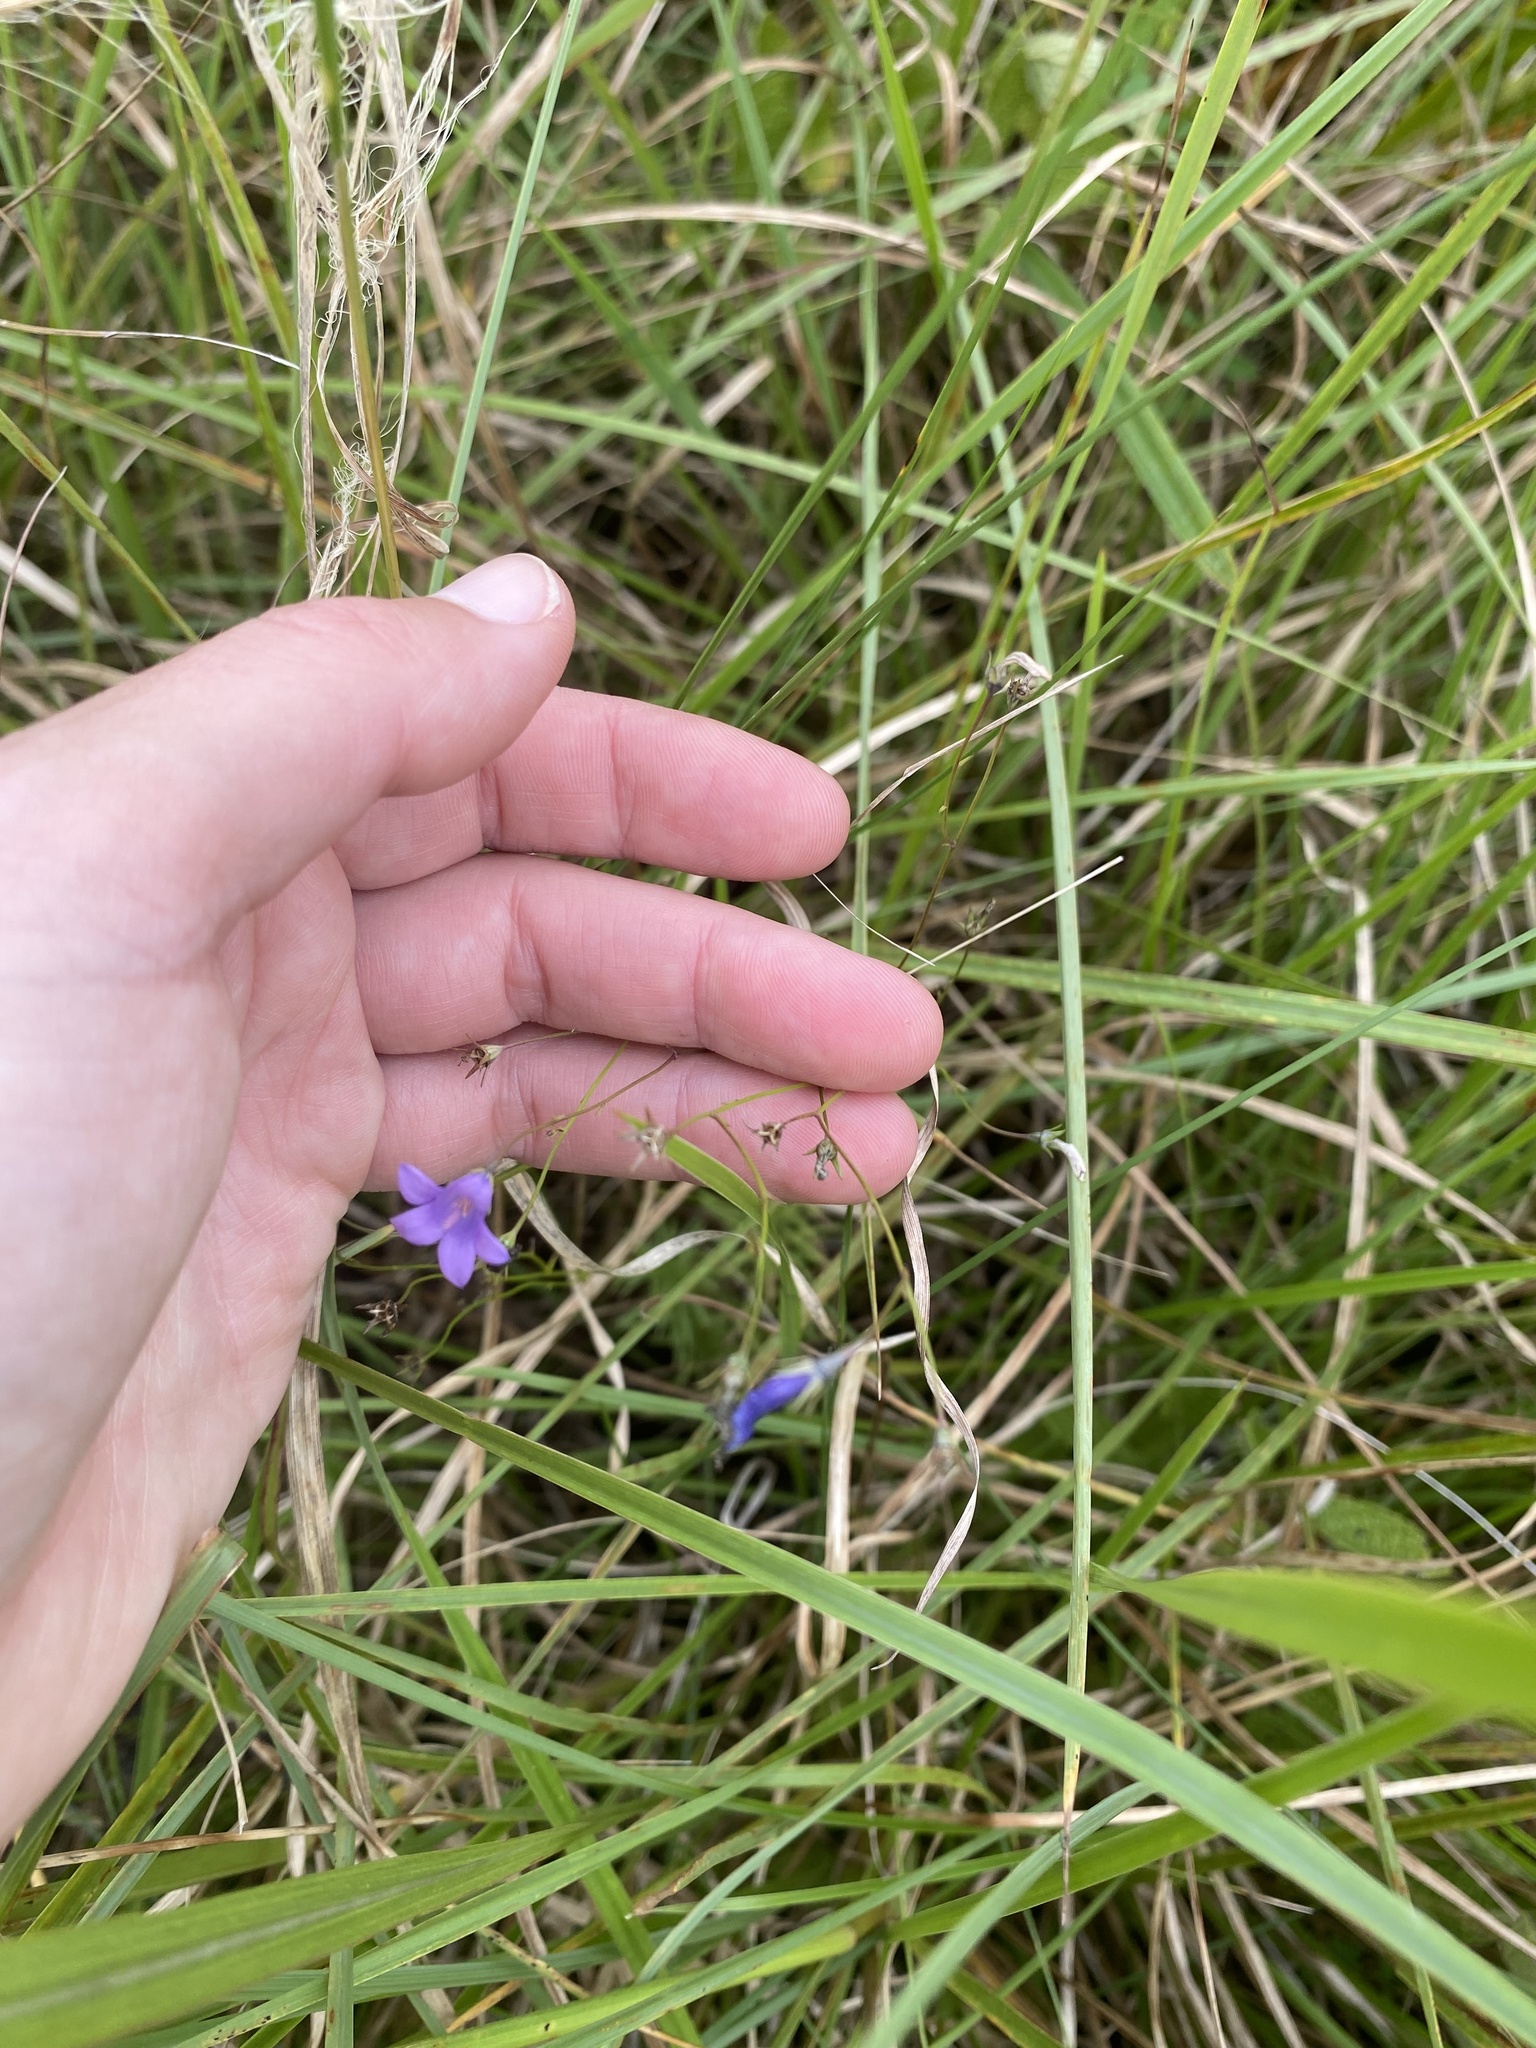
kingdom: Plantae
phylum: Tracheophyta
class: Magnoliopsida
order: Asterales
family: Campanulaceae
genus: Wahlenbergia
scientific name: Wahlenbergia krebsii
